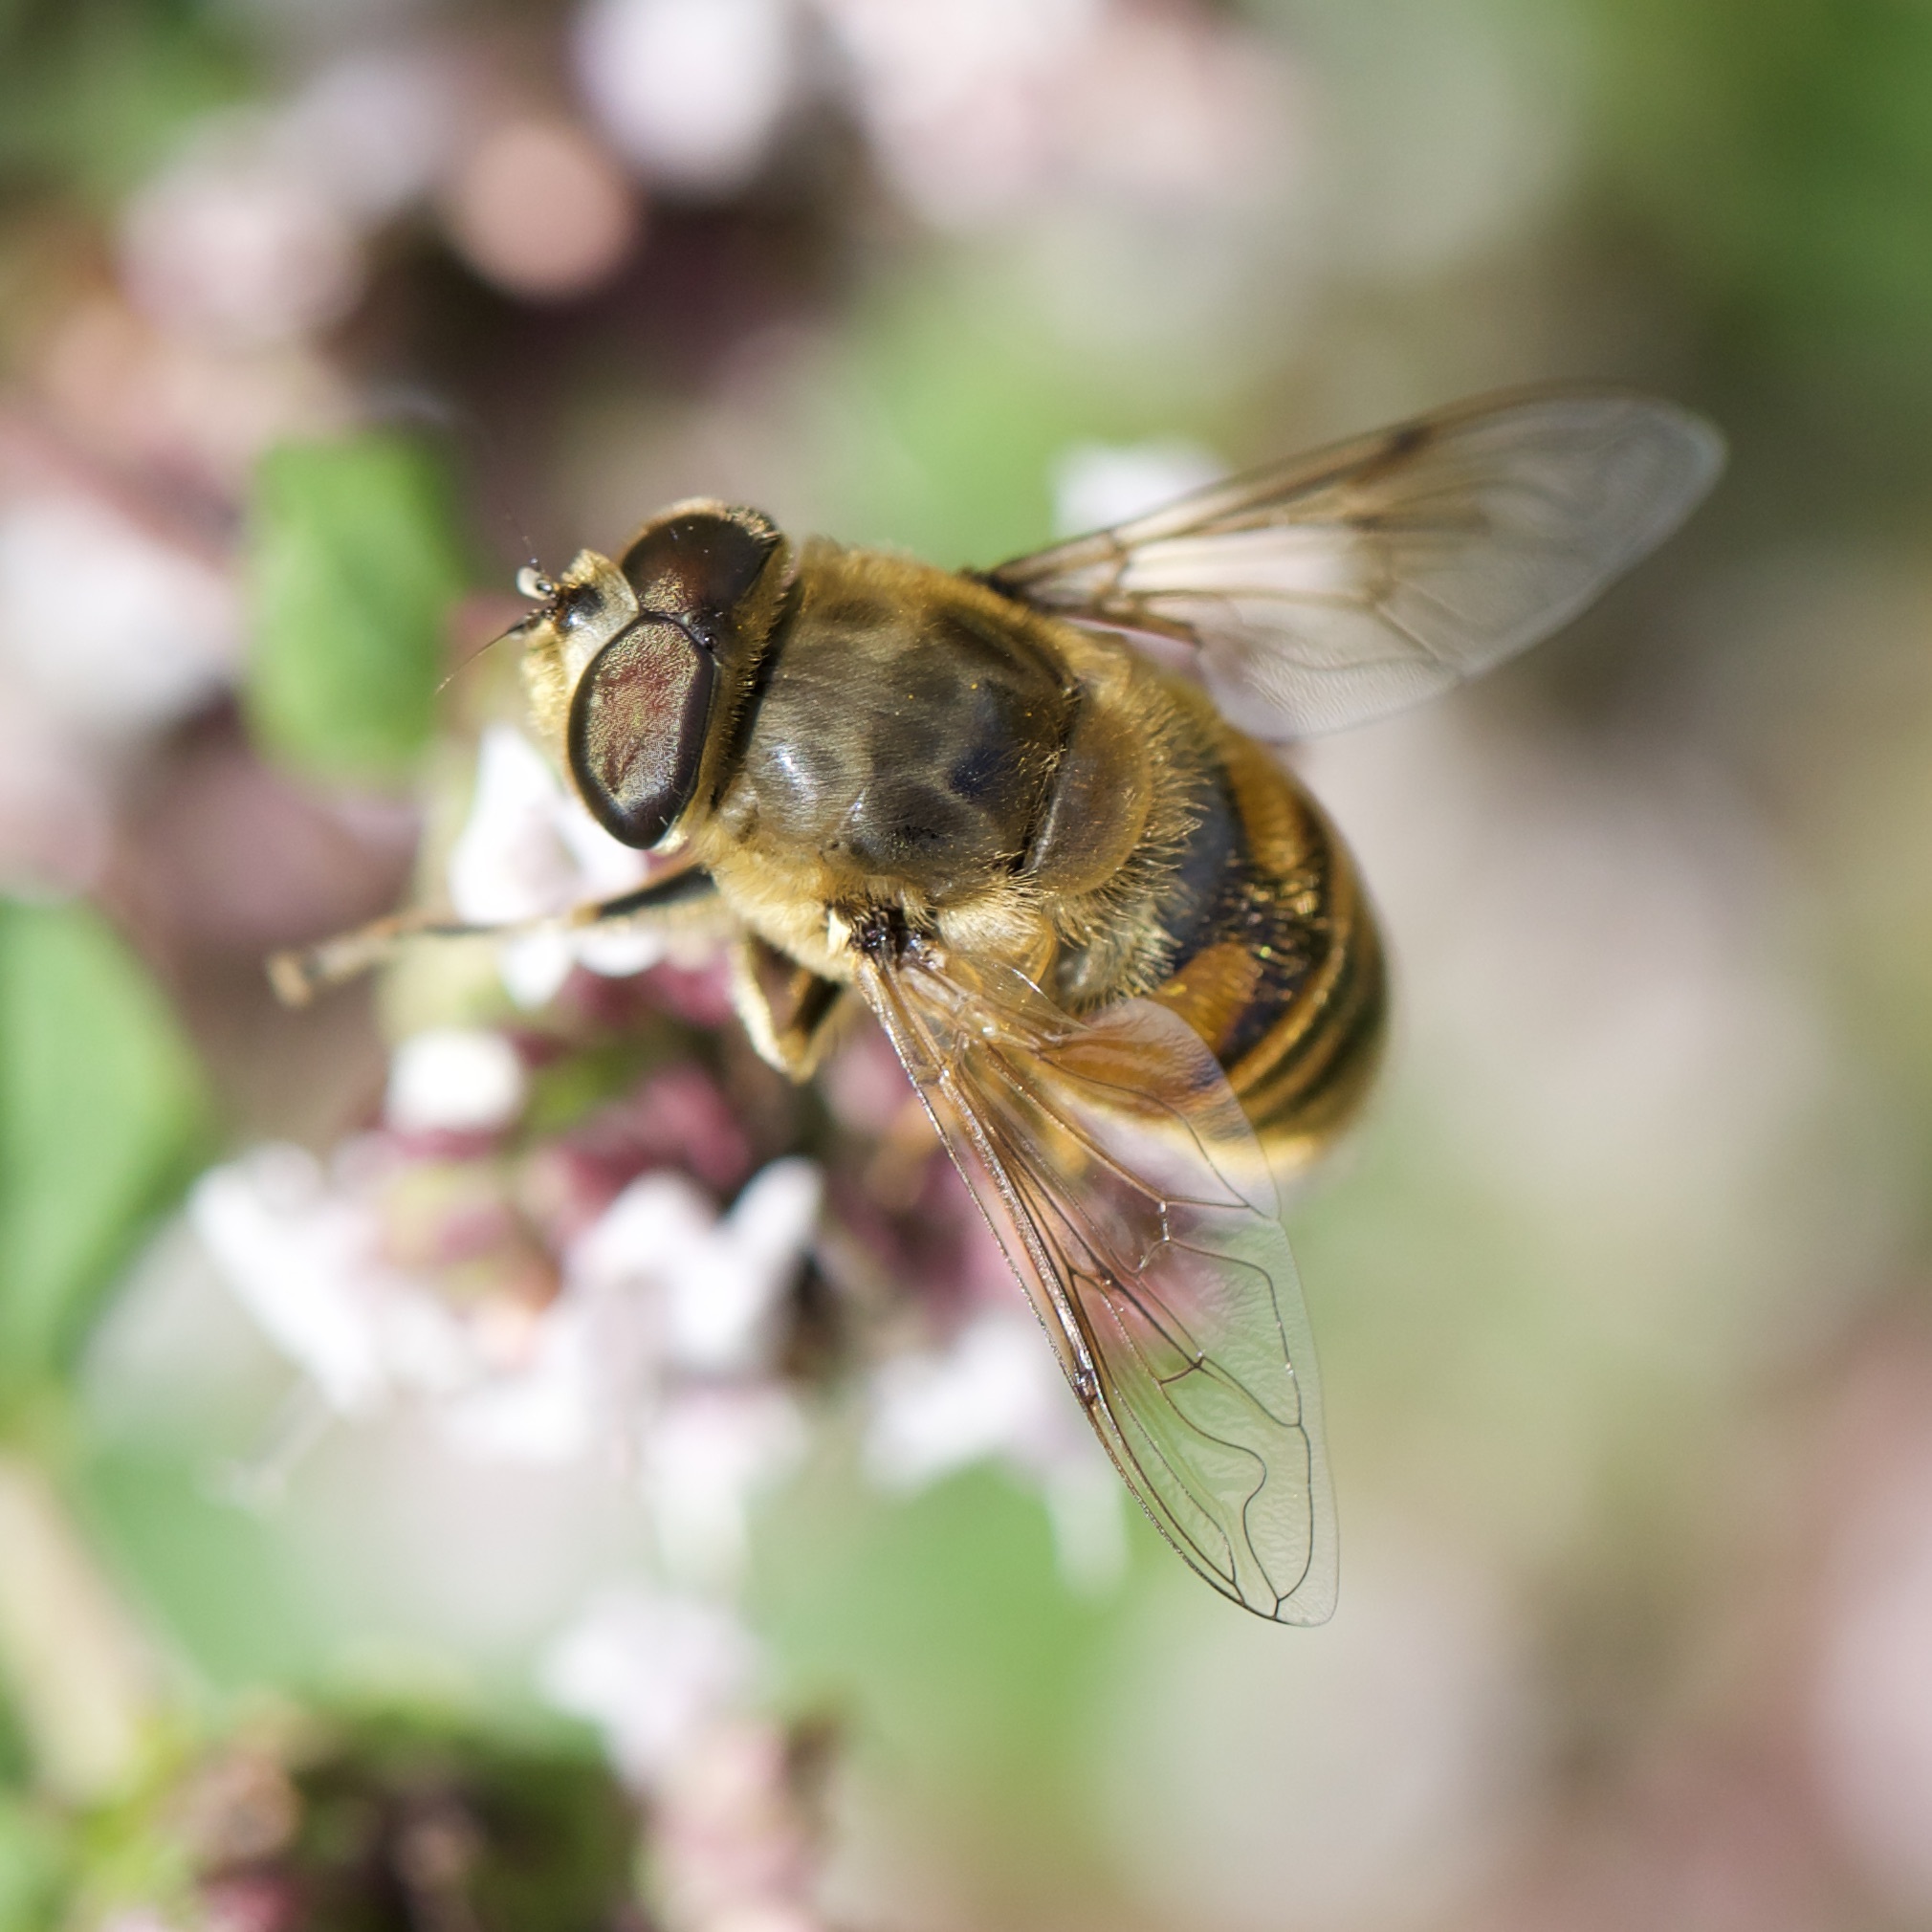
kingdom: Animalia
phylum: Arthropoda
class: Insecta
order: Diptera
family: Syrphidae
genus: Eristalis
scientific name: Eristalis tenax
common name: Drone fly
